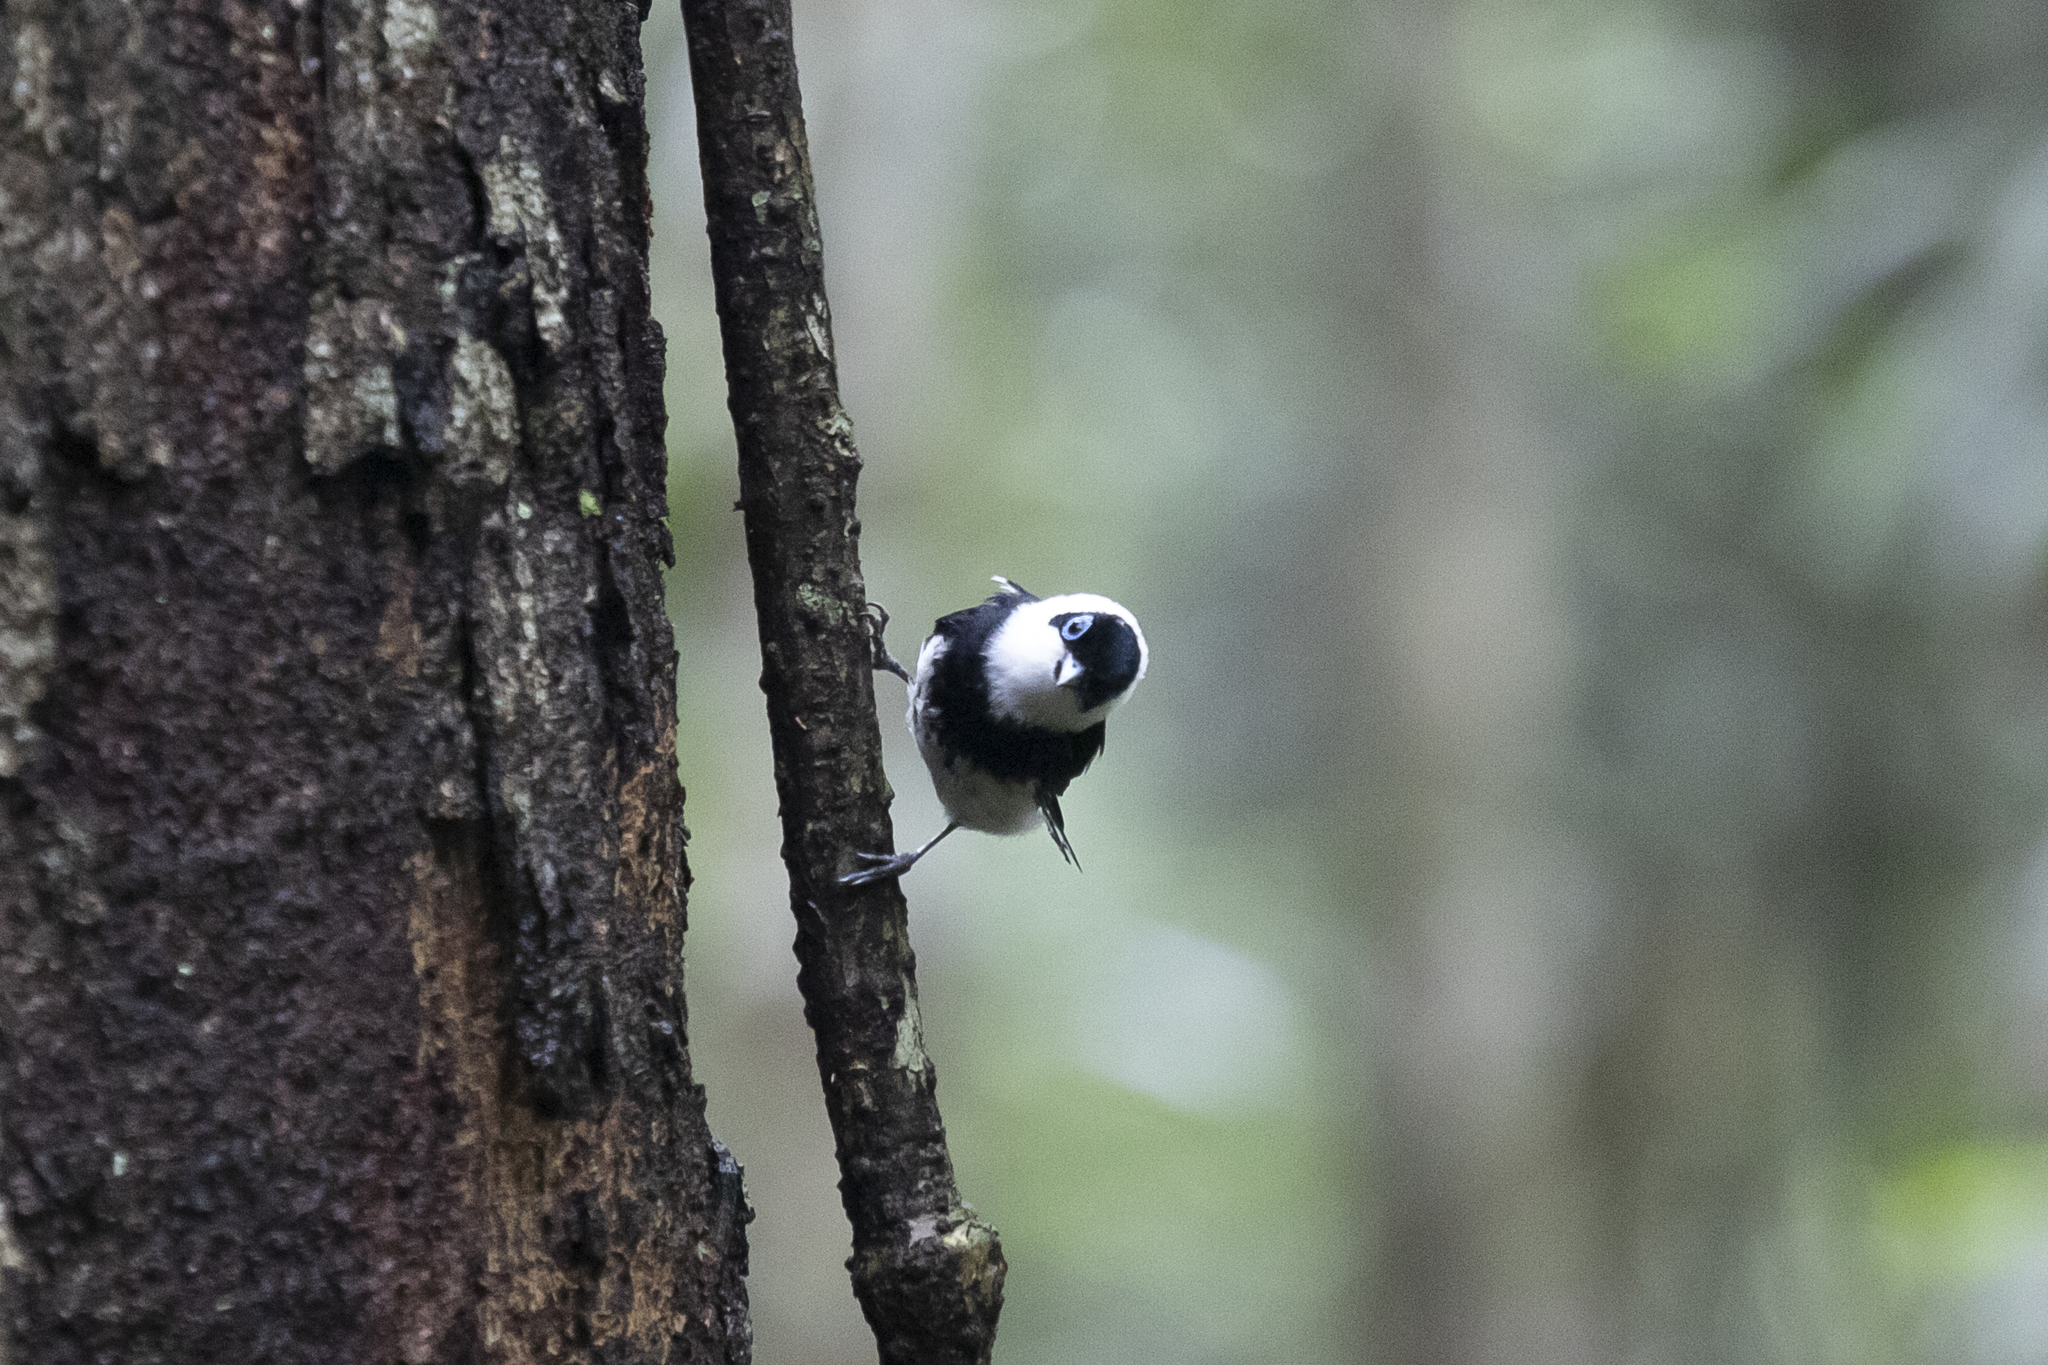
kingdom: Animalia
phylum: Chordata
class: Aves
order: Passeriformes
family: Monarchidae
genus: Arses
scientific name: Arses kaupi
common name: Pied monarch
